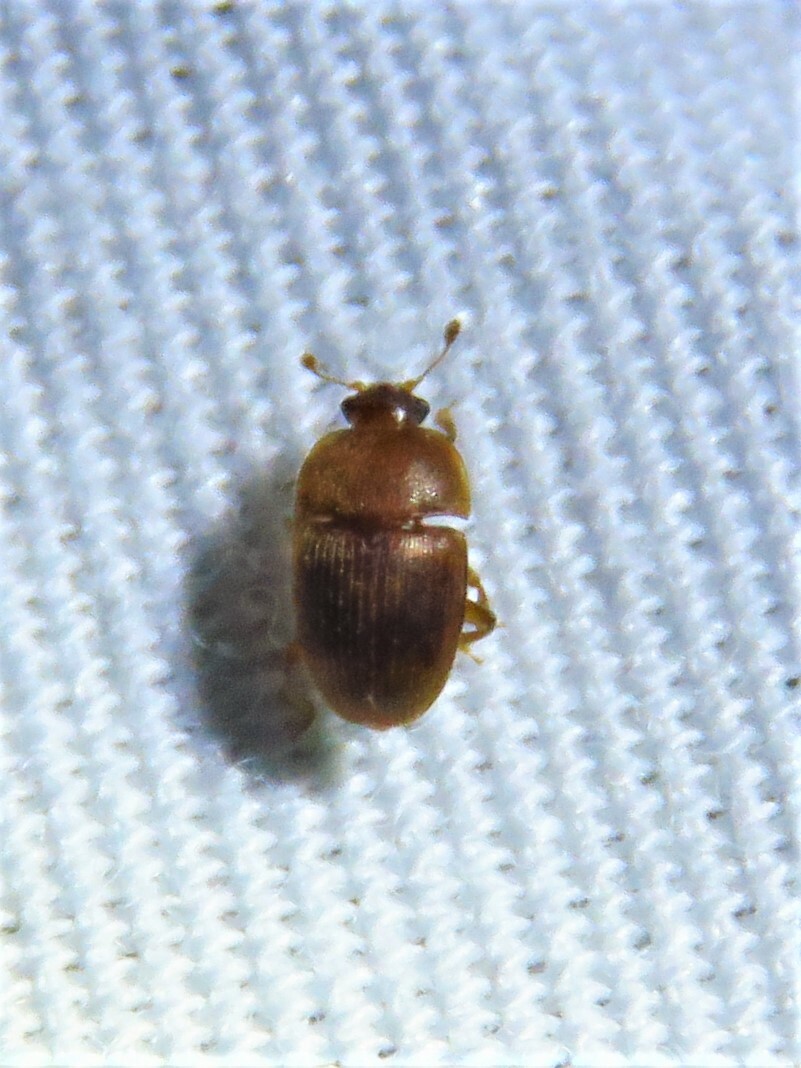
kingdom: Animalia
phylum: Arthropoda
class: Insecta
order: Coleoptera
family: Nitidulidae
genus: Stelidota
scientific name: Stelidota coenosa
